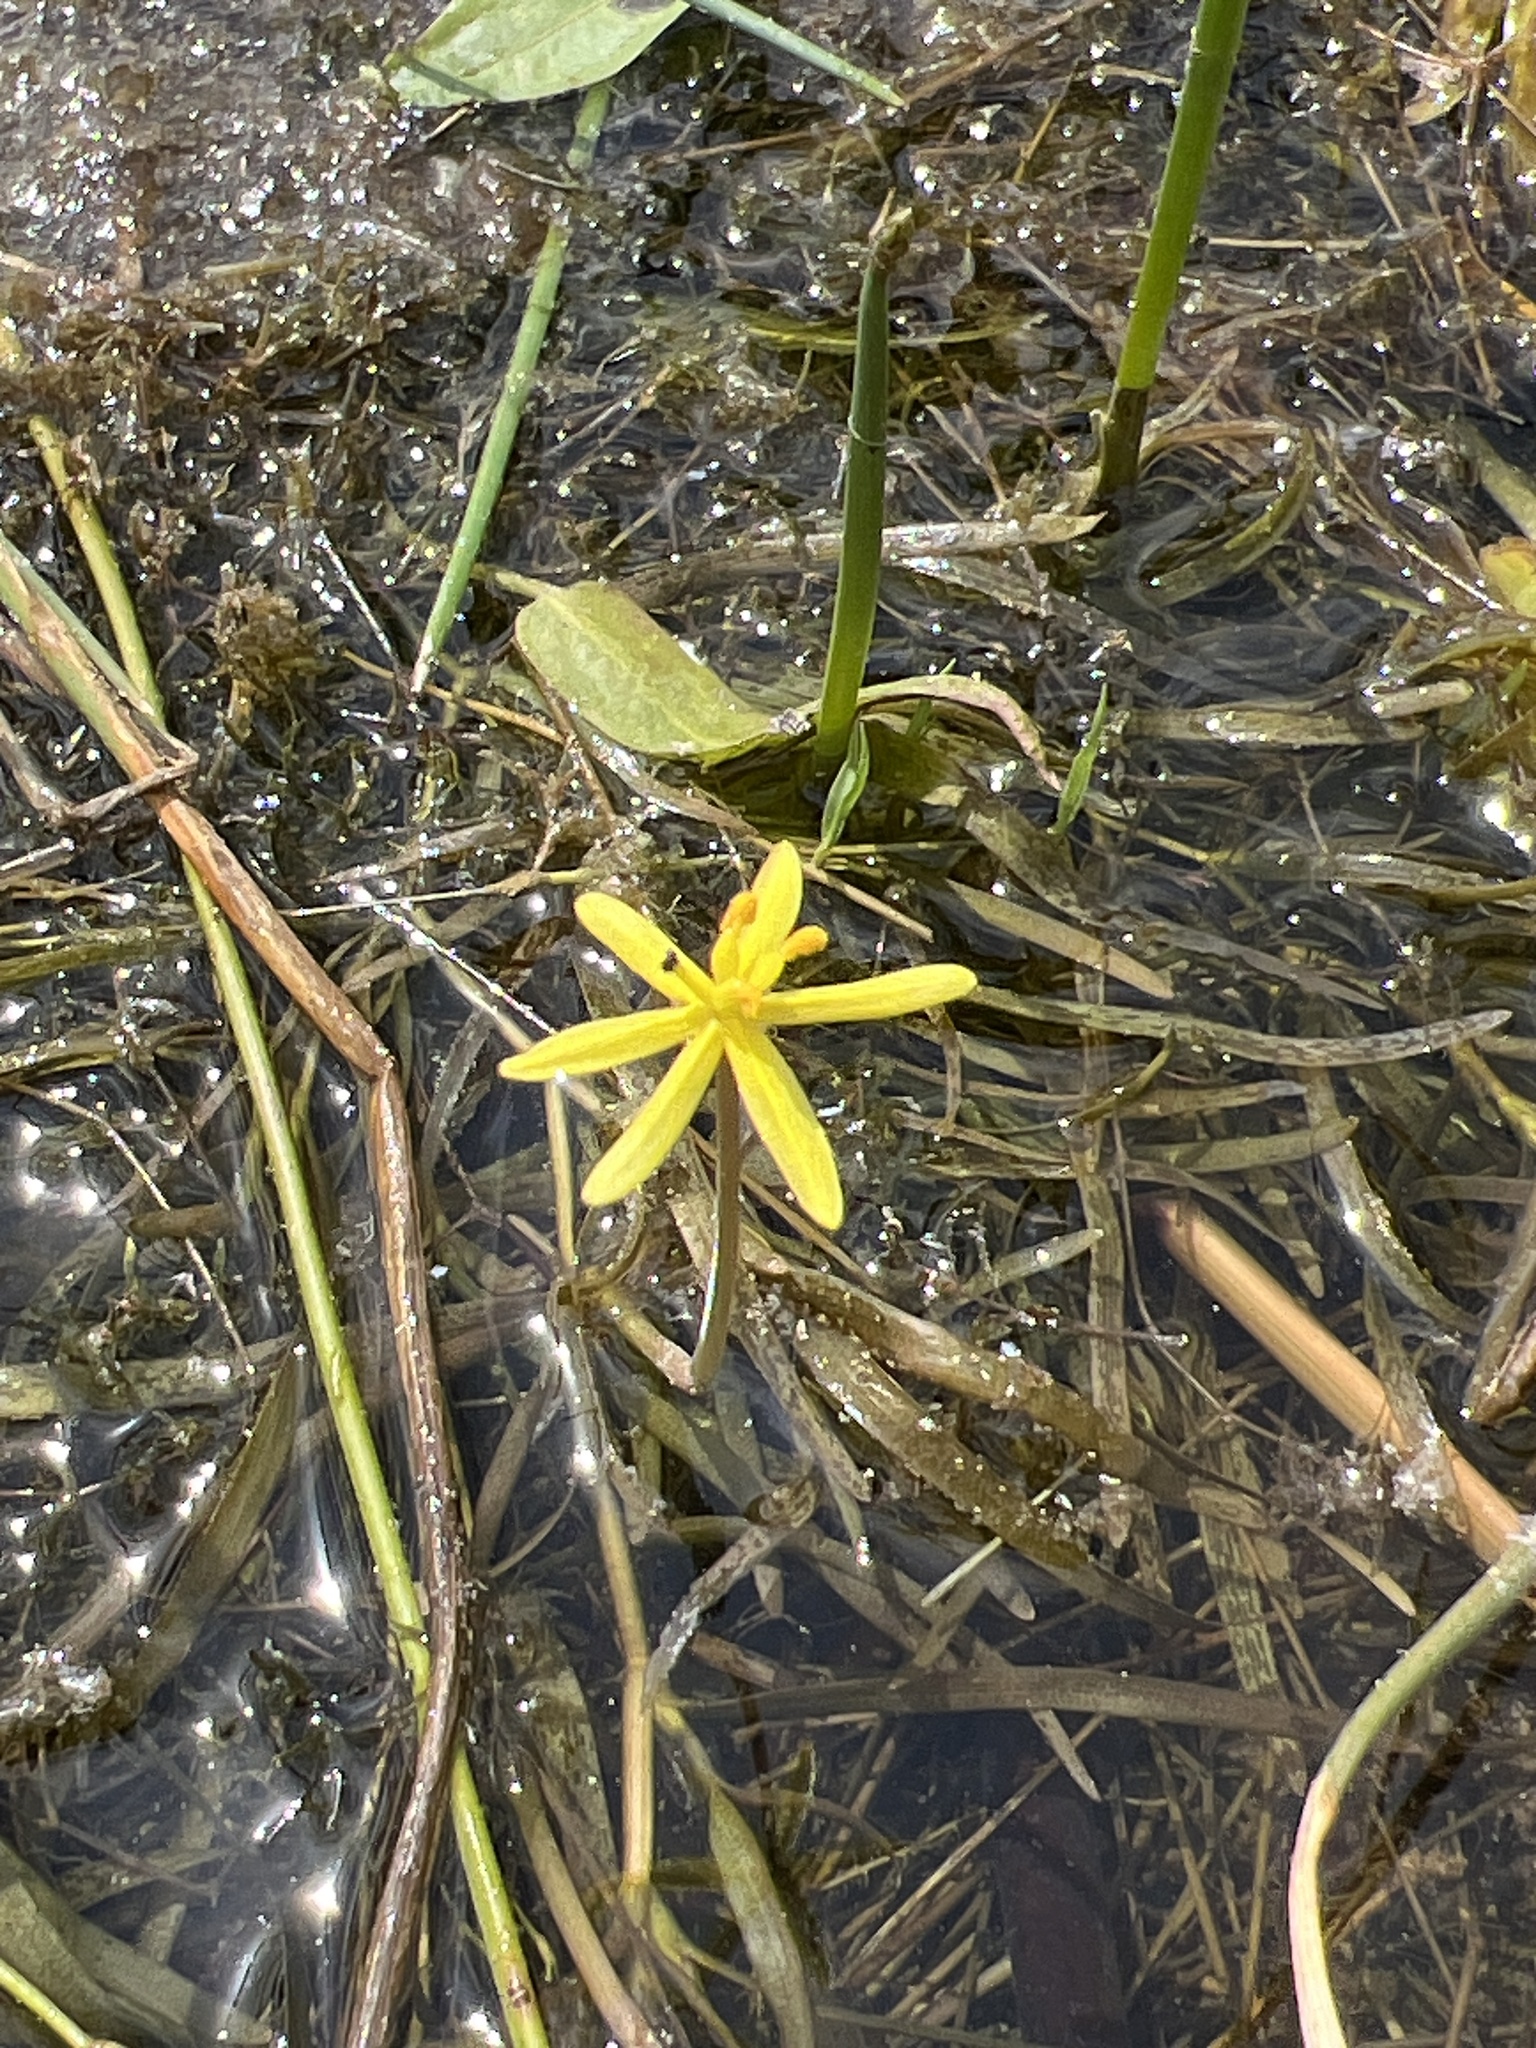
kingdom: Plantae
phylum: Tracheophyta
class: Liliopsida
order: Commelinales
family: Pontederiaceae
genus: Heteranthera
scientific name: Heteranthera dubia
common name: Grass-leaved mud plantain
